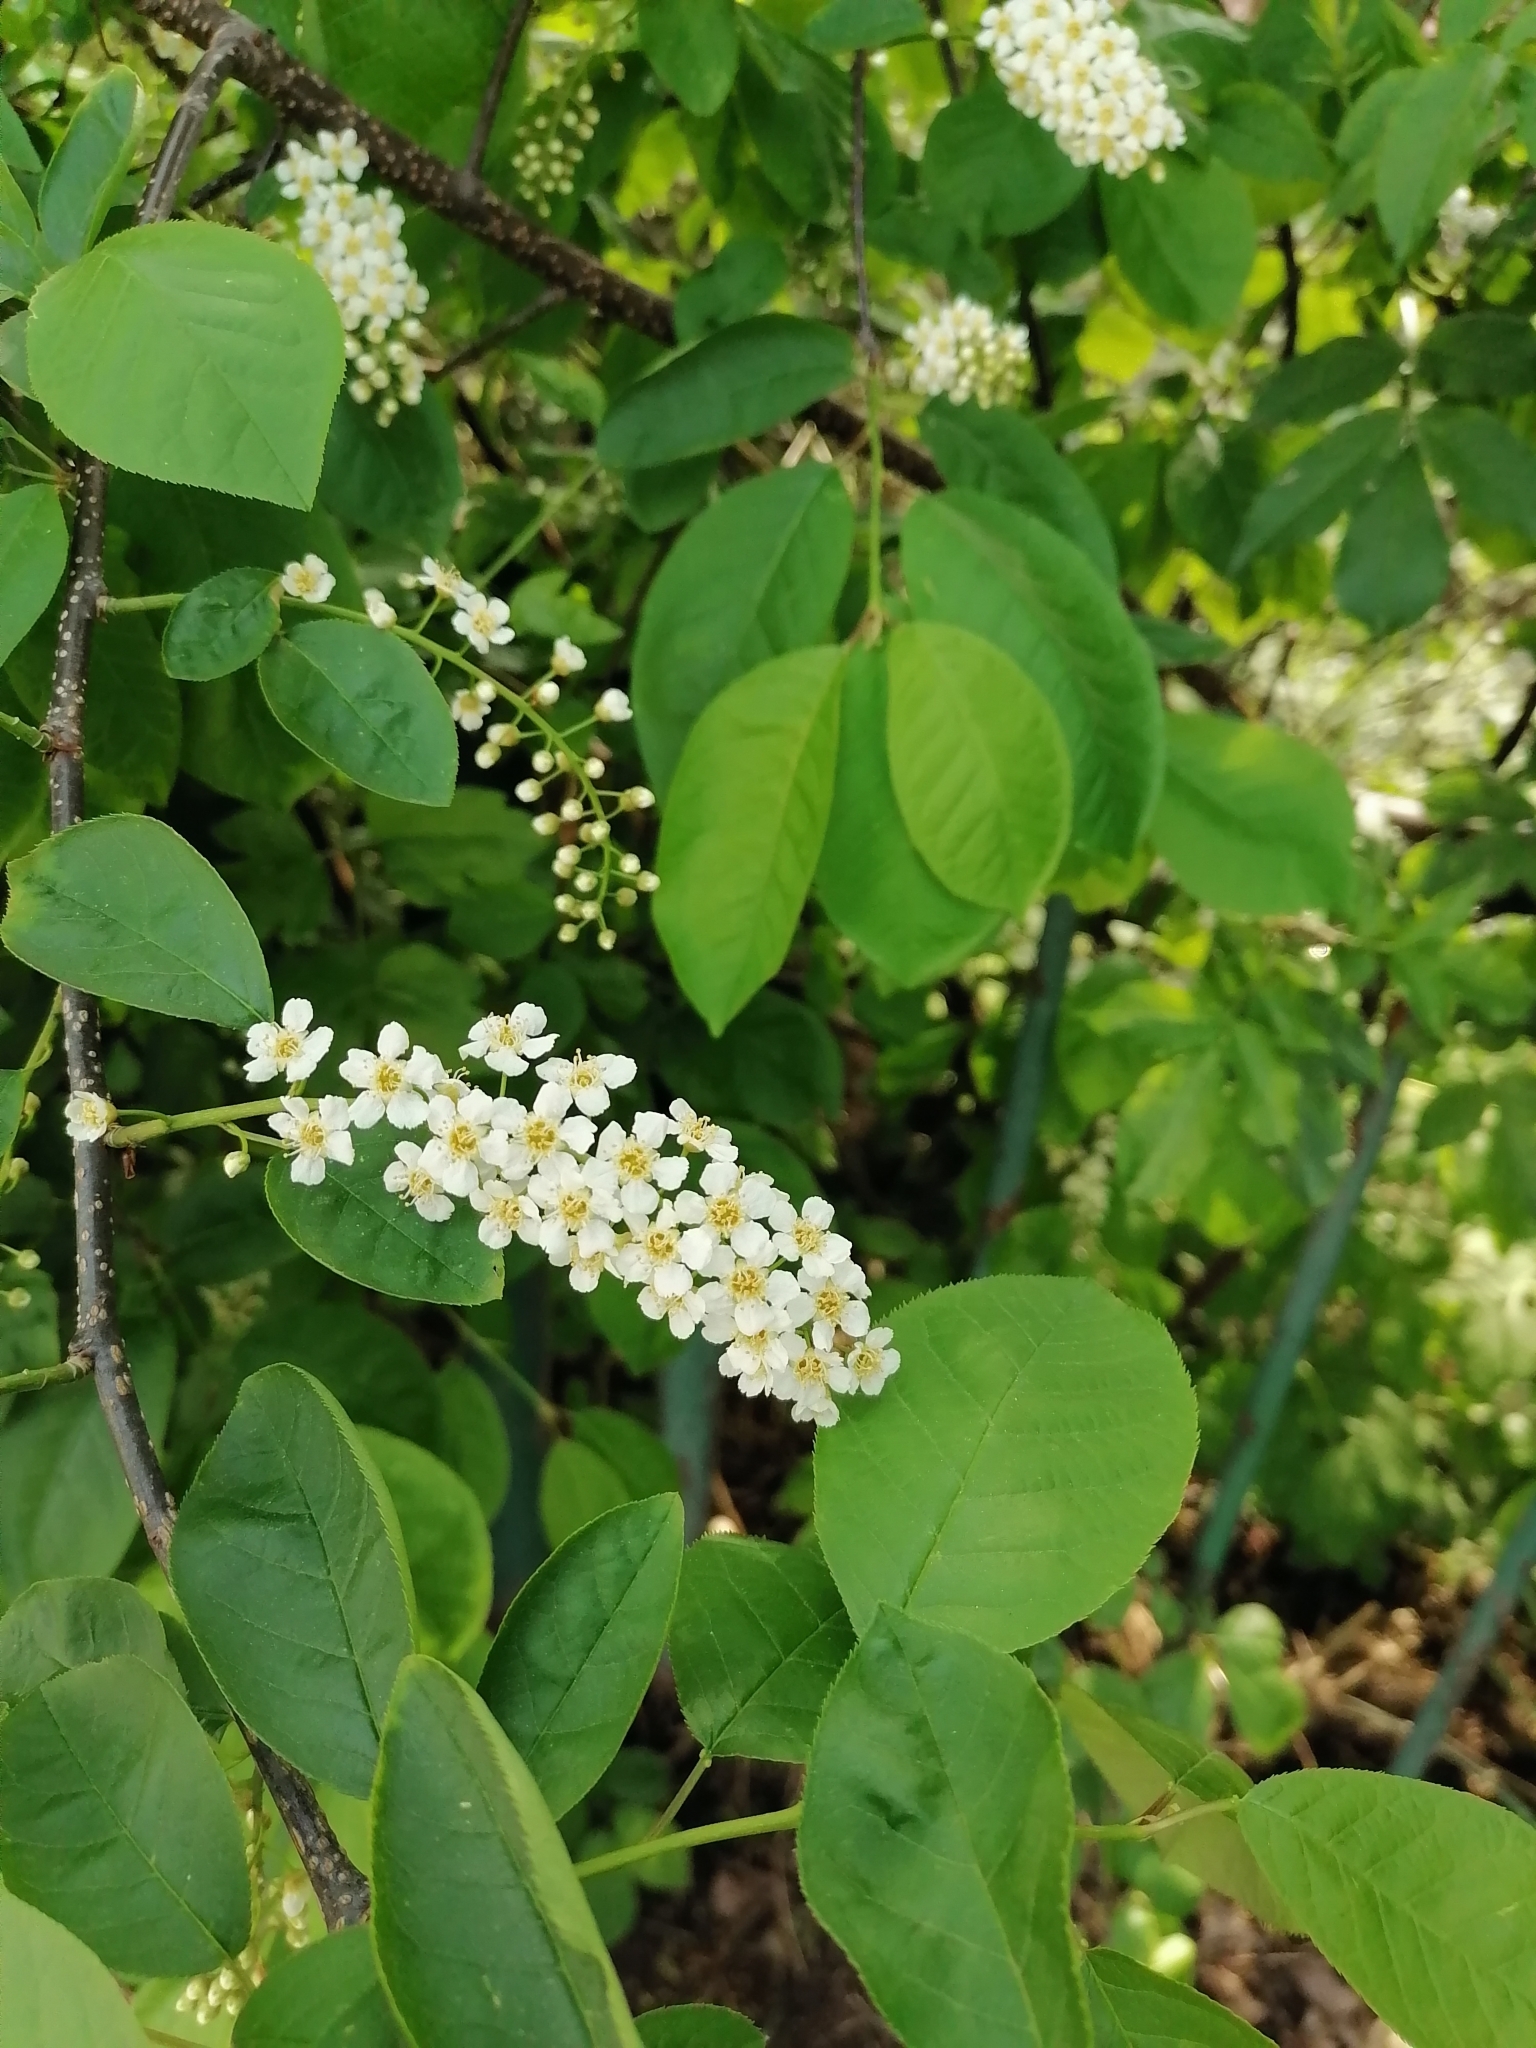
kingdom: Plantae
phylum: Tracheophyta
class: Magnoliopsida
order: Rosales
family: Rosaceae
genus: Prunus
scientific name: Prunus padus
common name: Bird cherry
